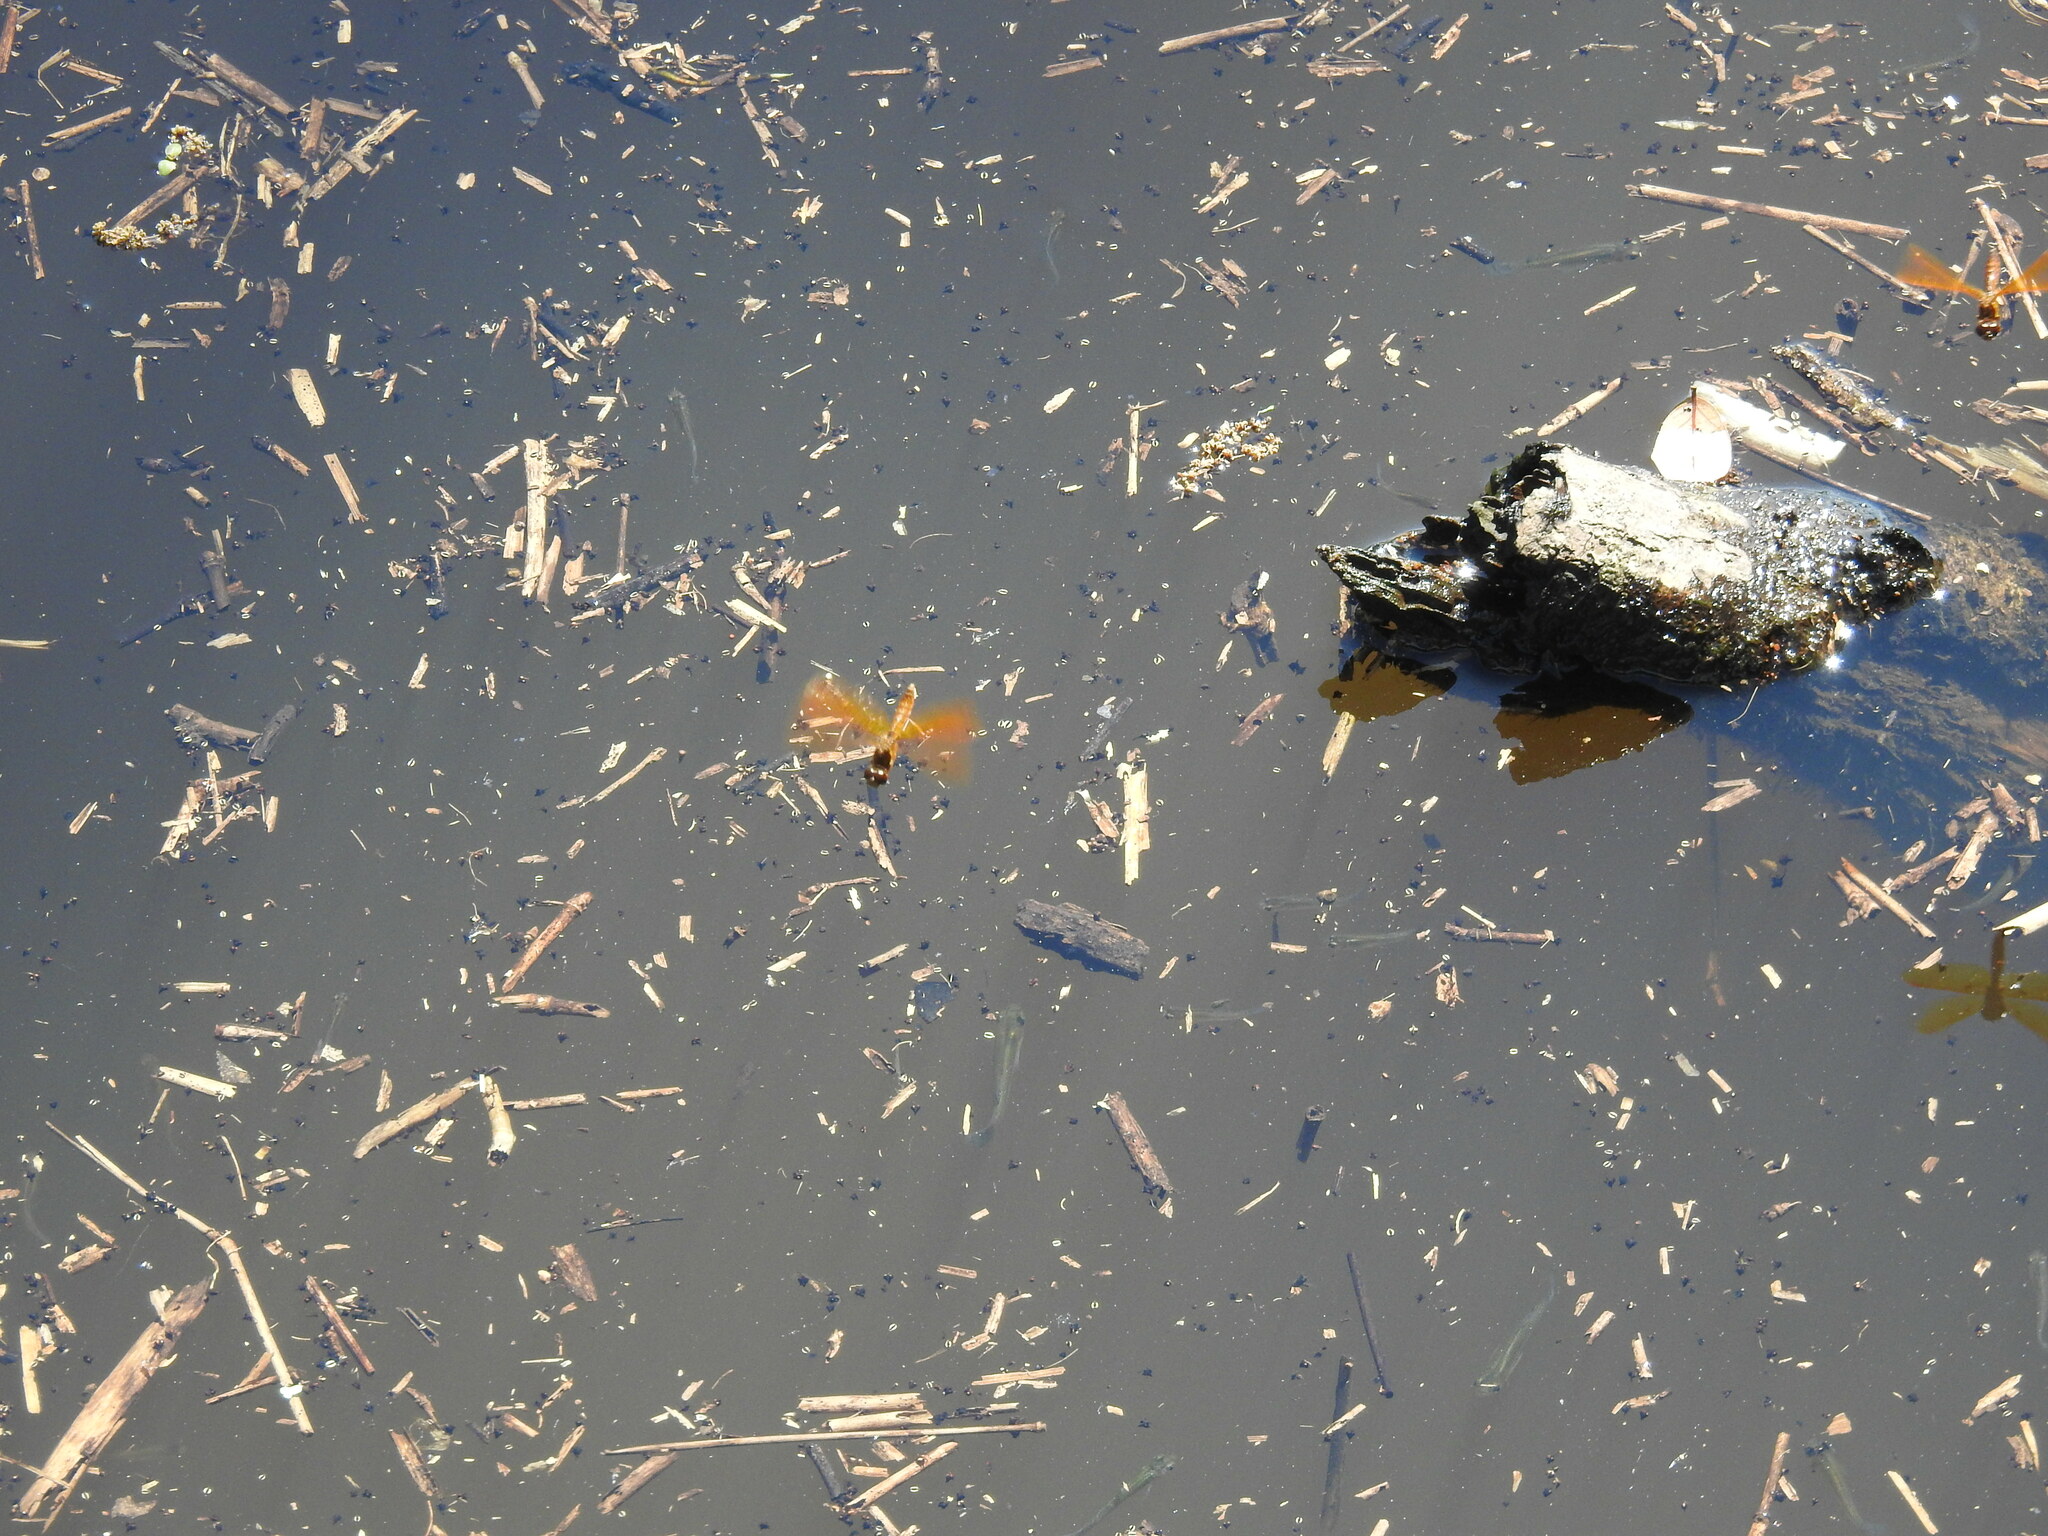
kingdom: Animalia
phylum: Arthropoda
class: Insecta
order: Odonata
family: Libellulidae
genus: Perithemis
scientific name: Perithemis tenera
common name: Eastern amberwing
